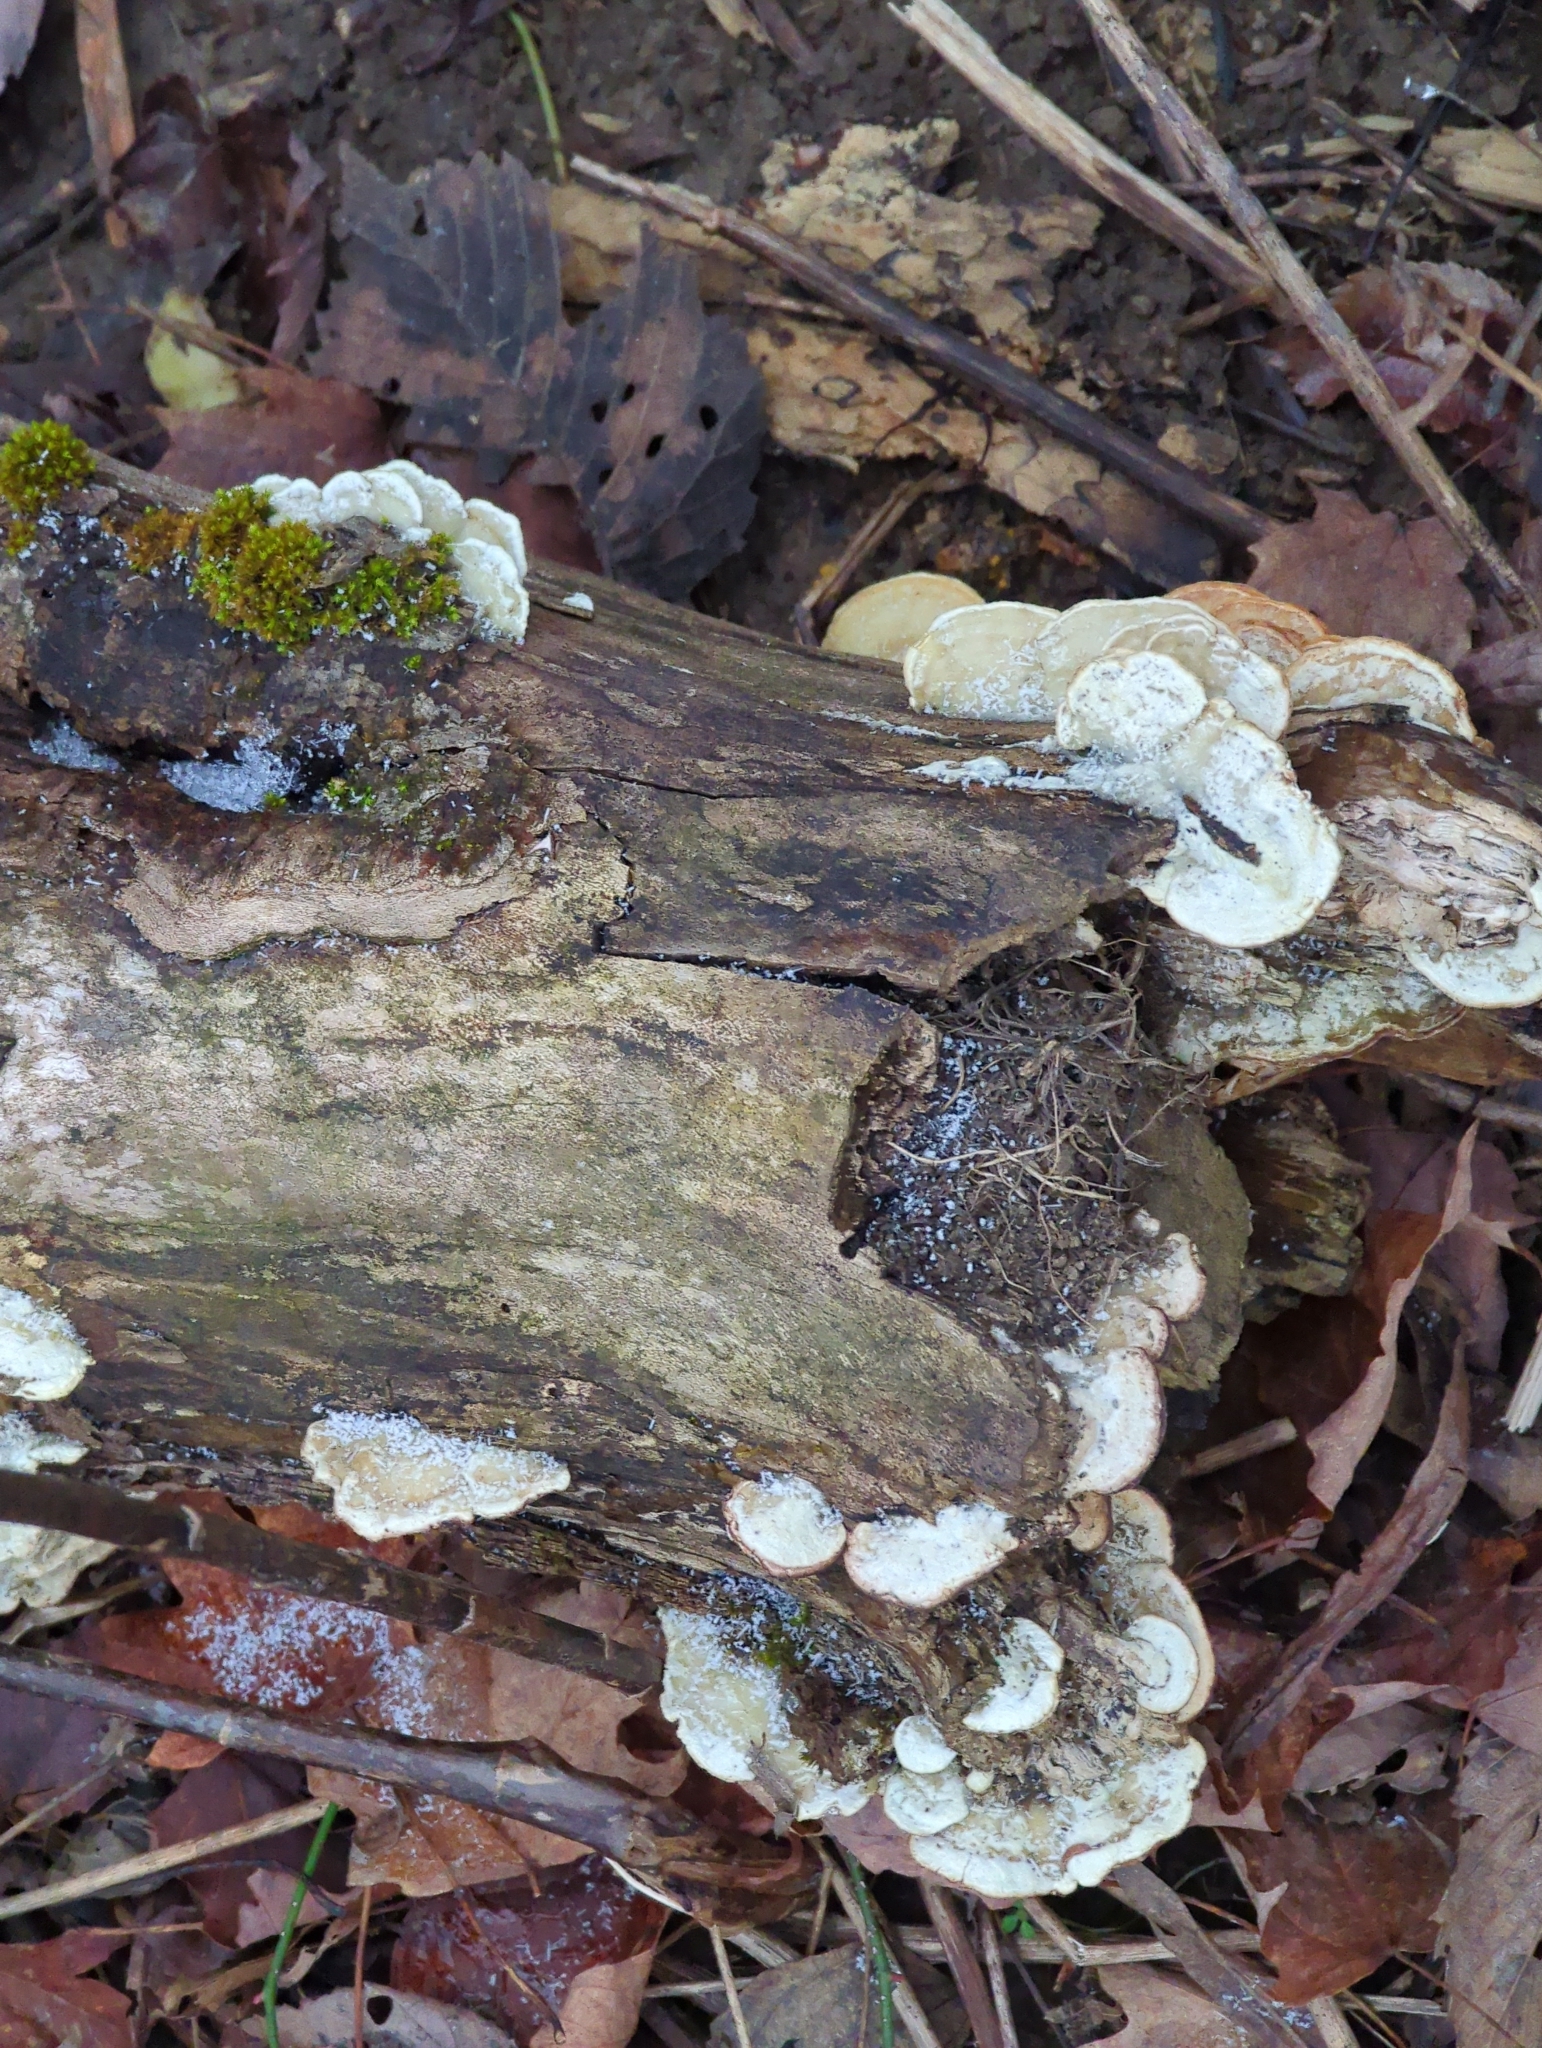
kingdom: Fungi
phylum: Basidiomycota
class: Agaricomycetes
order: Polyporales
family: Irpicaceae
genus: Vitreoporus
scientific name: Vitreoporus dichrous
